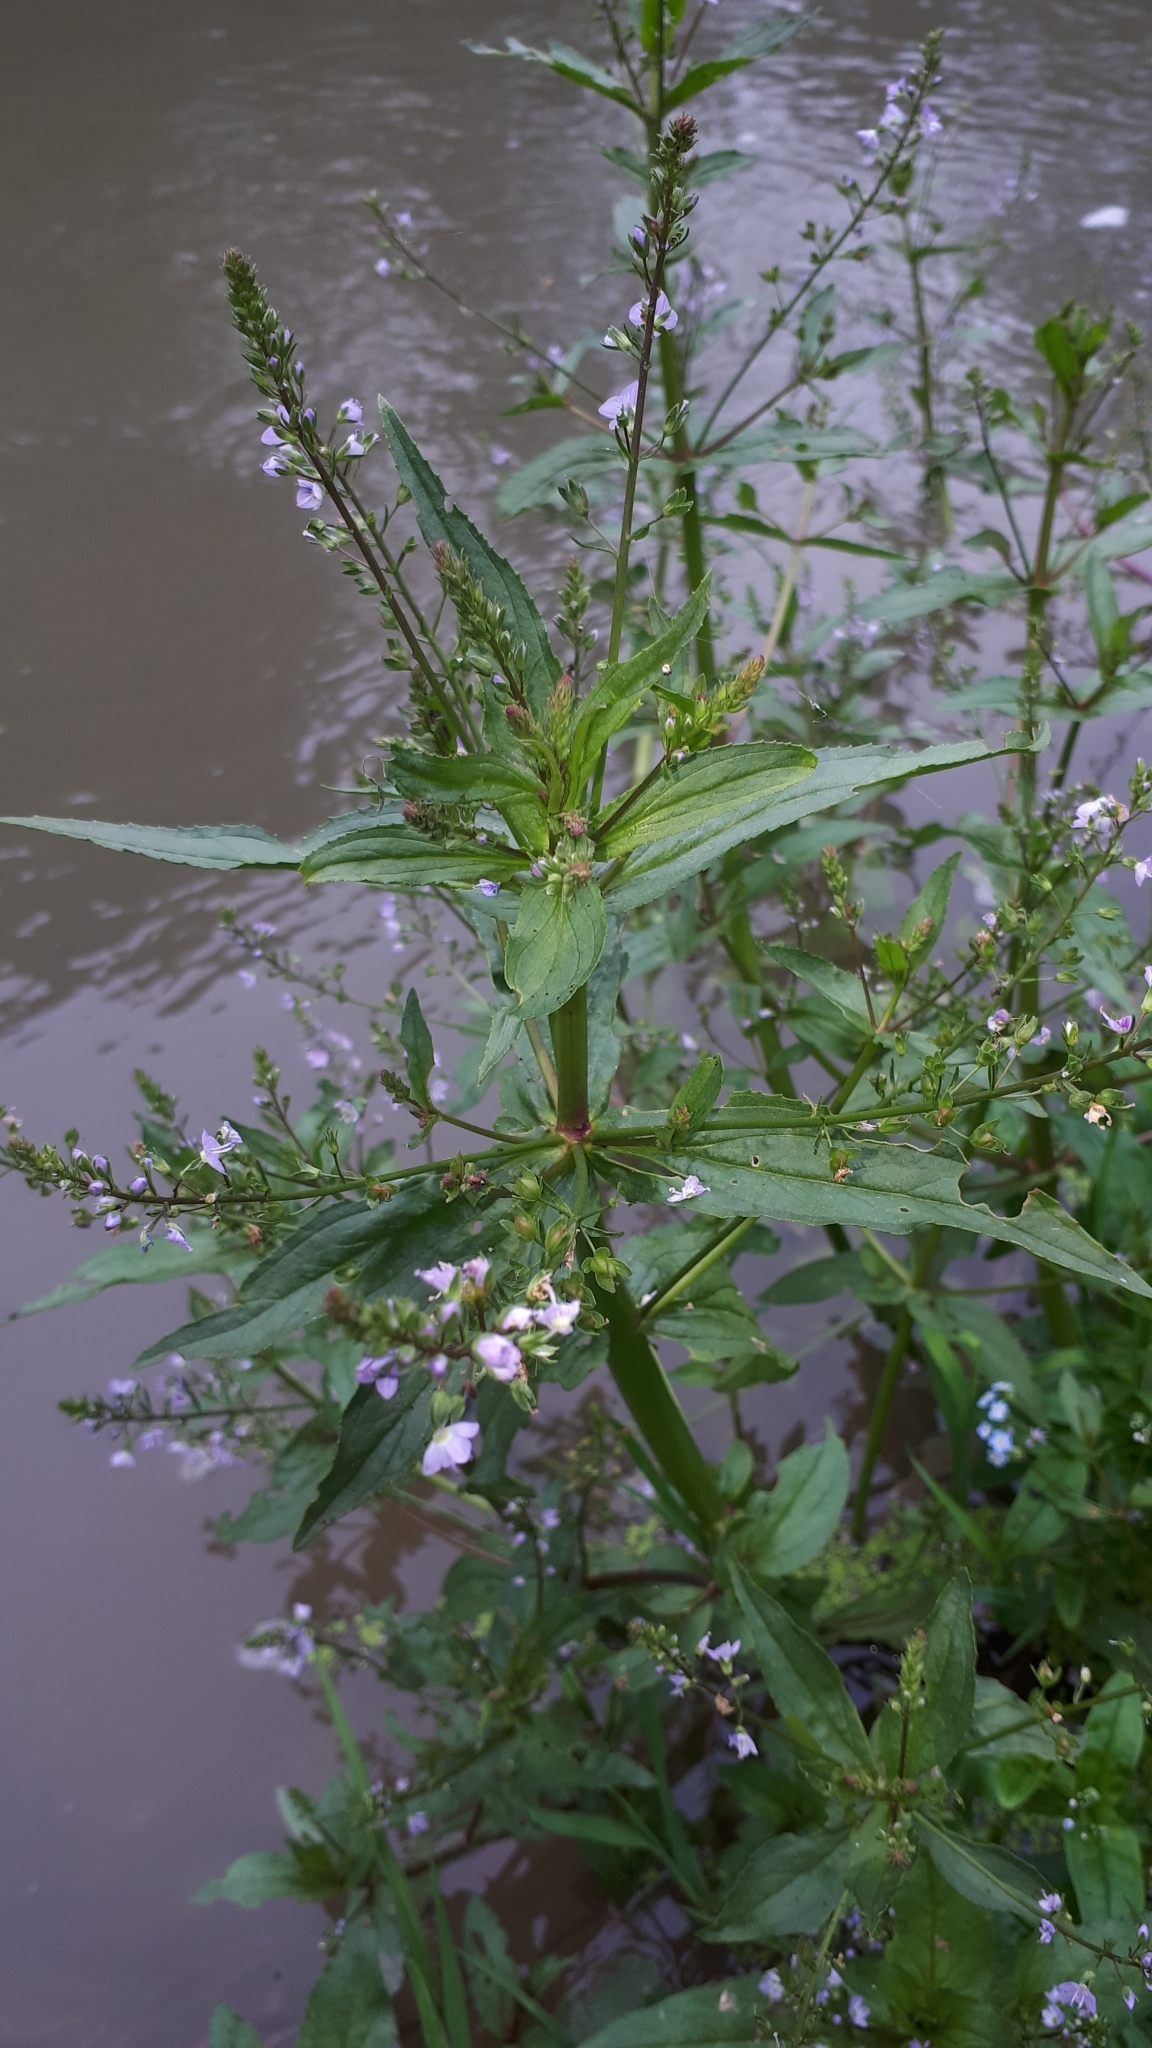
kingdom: Plantae
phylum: Tracheophyta
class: Magnoliopsida
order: Lamiales
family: Plantaginaceae
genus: Veronica
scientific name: Veronica anagallis-aquatica
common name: Water speedwell
